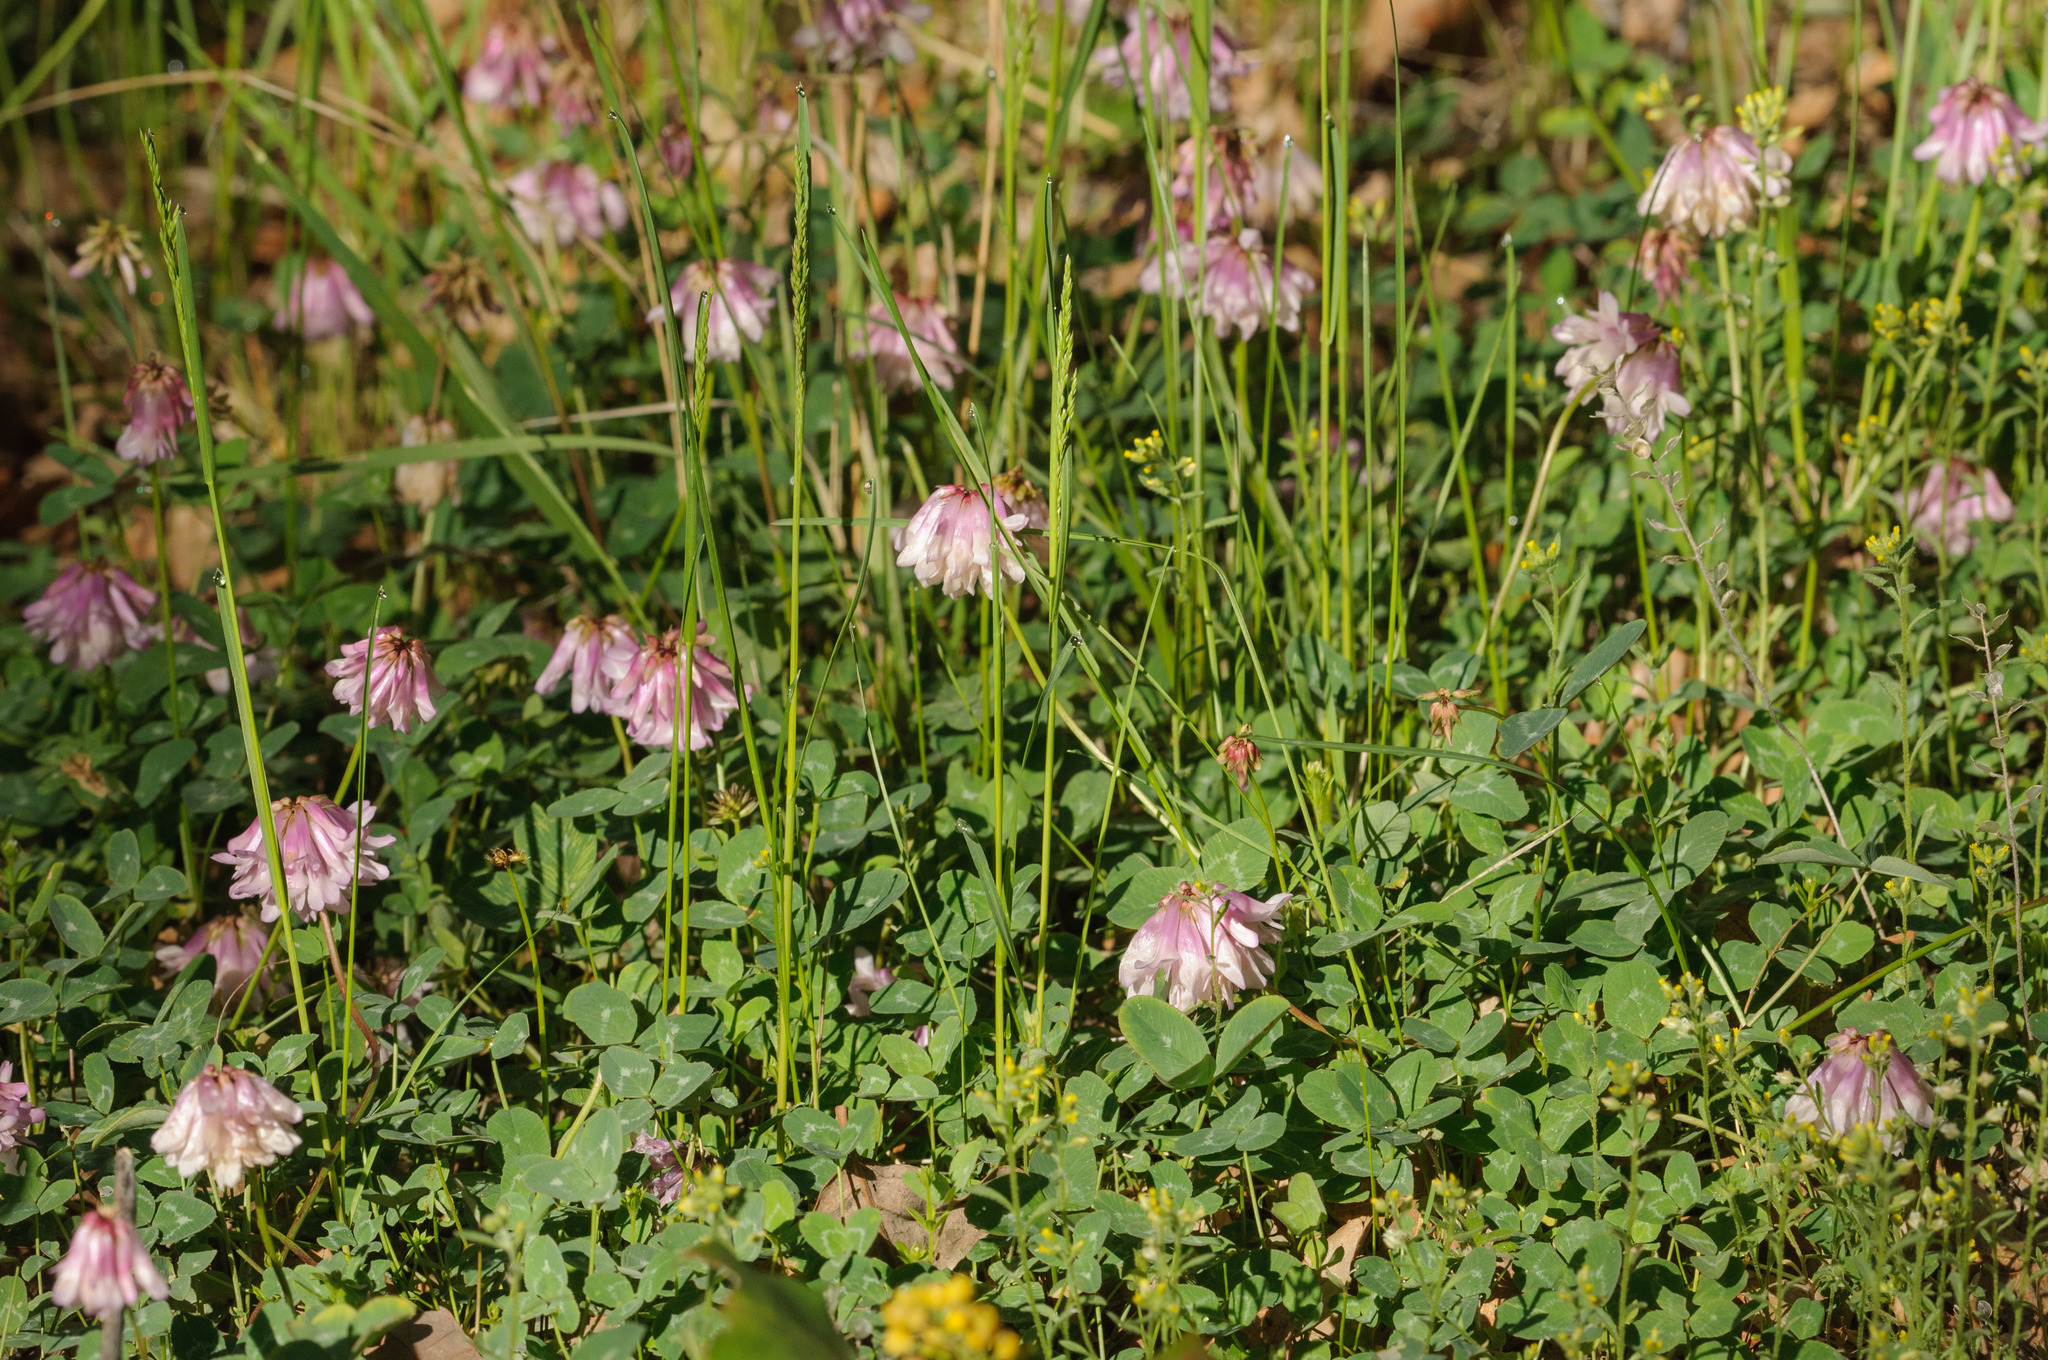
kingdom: Plantae
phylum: Tracheophyta
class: Magnoliopsida
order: Fabales
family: Fabaceae
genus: Trifolium
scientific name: Trifolium kingii
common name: Shasta clover
